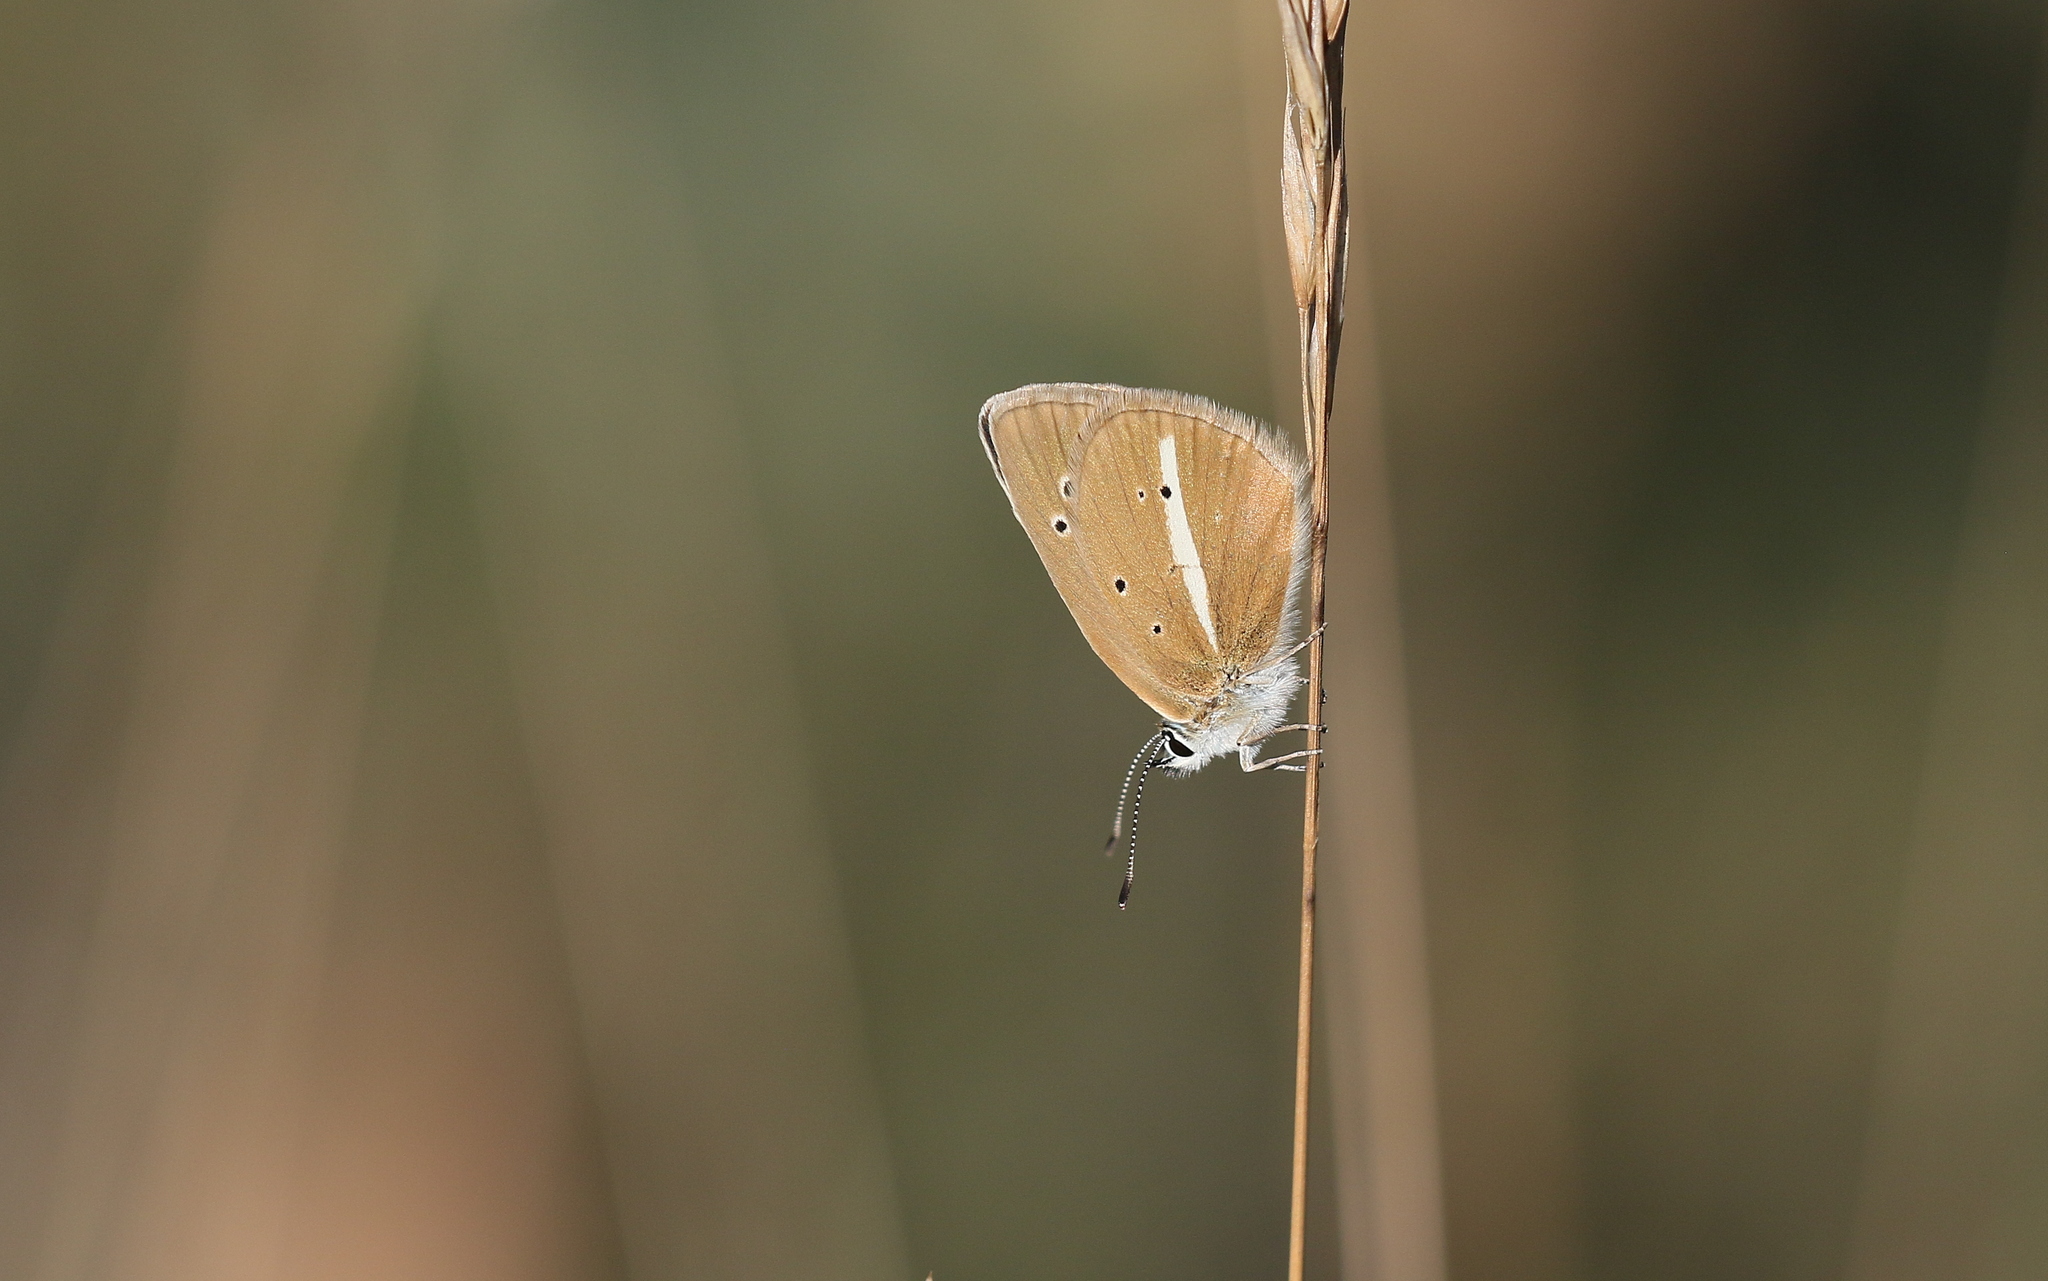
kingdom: Animalia
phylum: Arthropoda
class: Insecta
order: Lepidoptera
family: Lycaenidae
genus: Agrodiaetus
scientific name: Agrodiaetus damon
